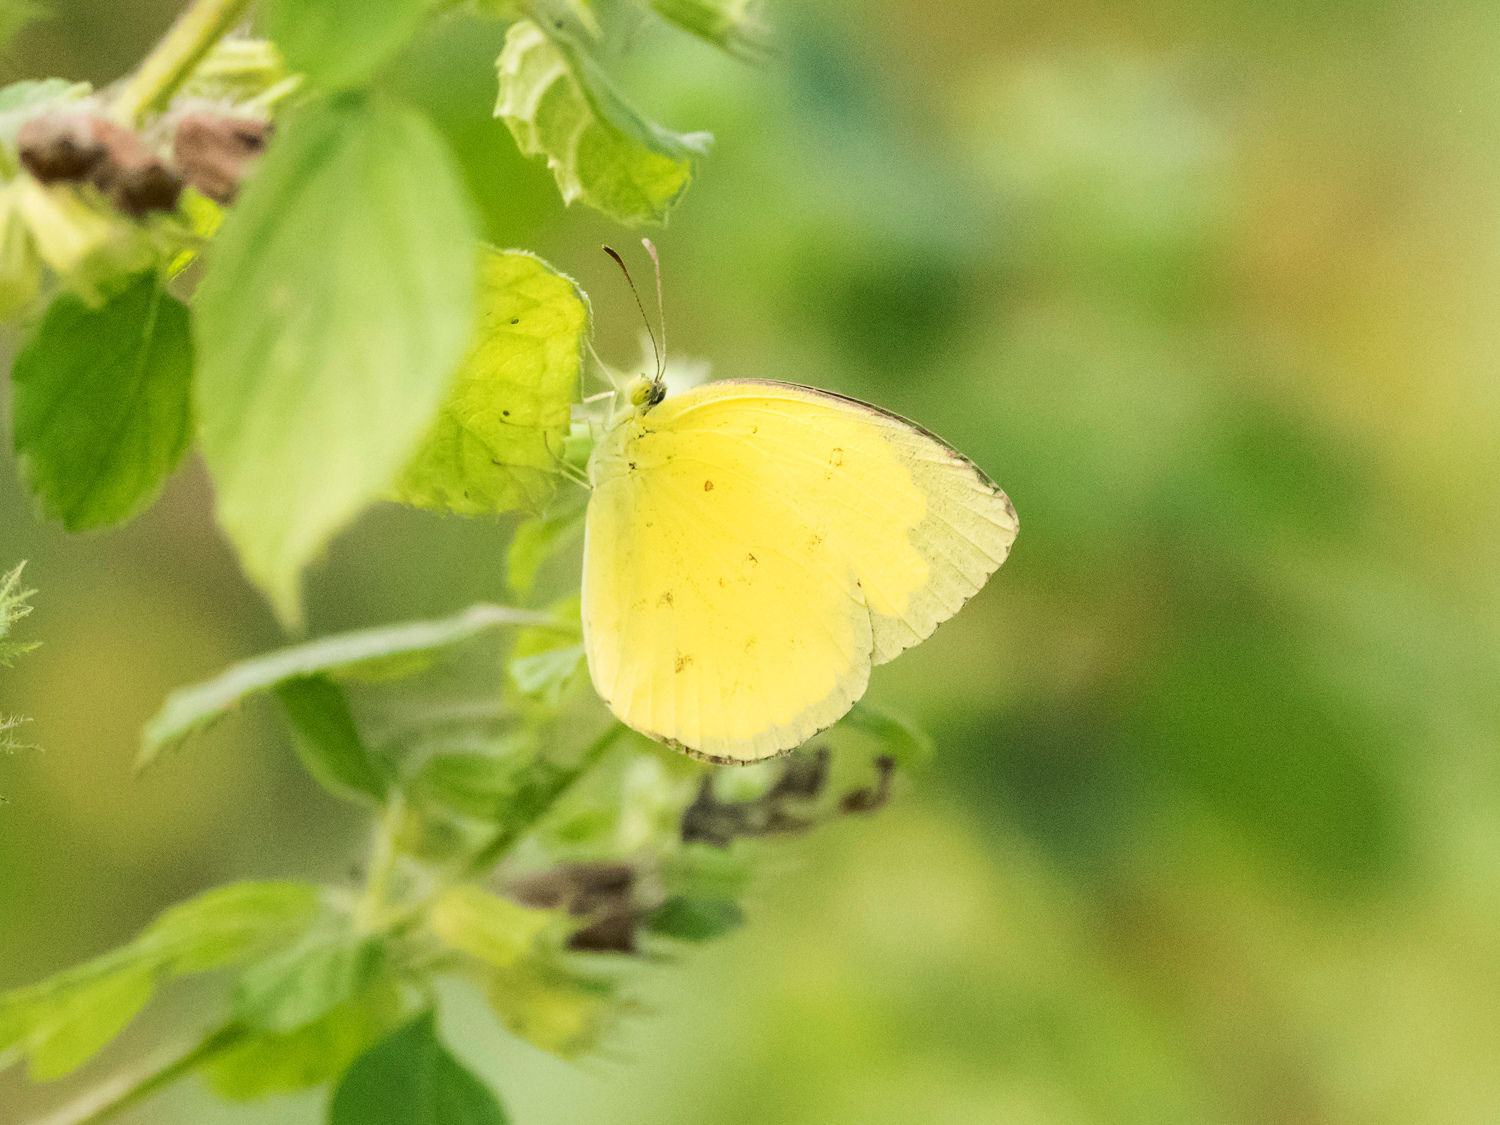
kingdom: Animalia
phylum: Arthropoda
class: Insecta
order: Lepidoptera
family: Pieridae
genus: Eurema
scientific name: Eurema hecabe
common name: Pale grass yellow
